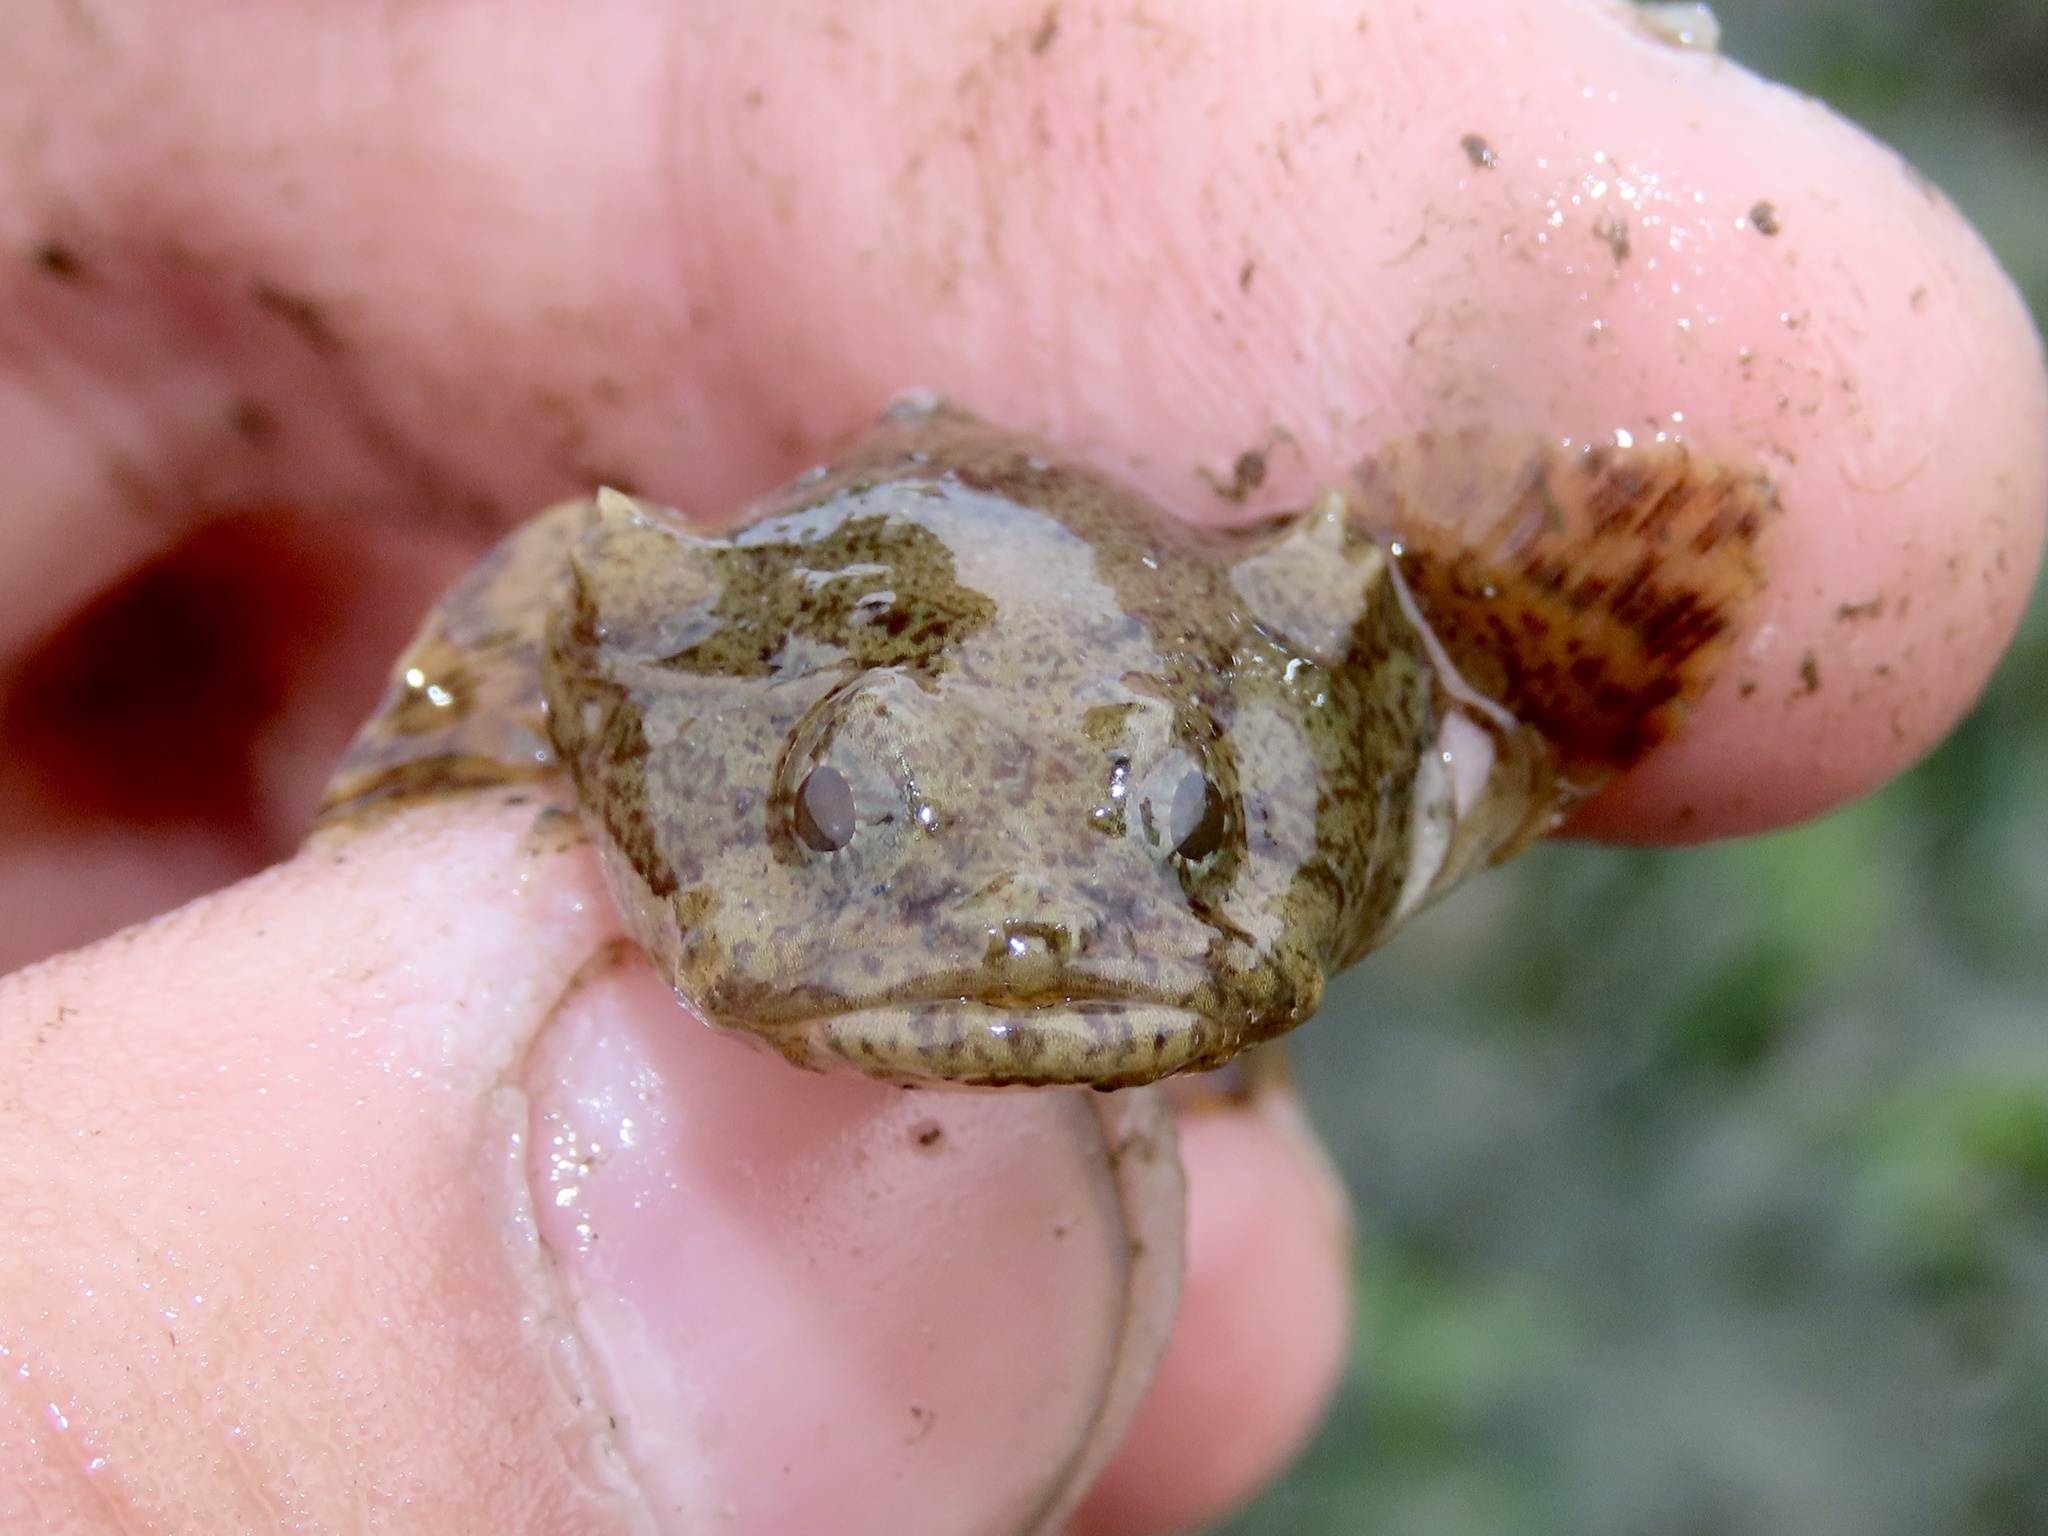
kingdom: Animalia
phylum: Chordata
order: Batrachoidiformes
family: Batrachoididae
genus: Opsanus
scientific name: Opsanus tau
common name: Oyster toadfish
